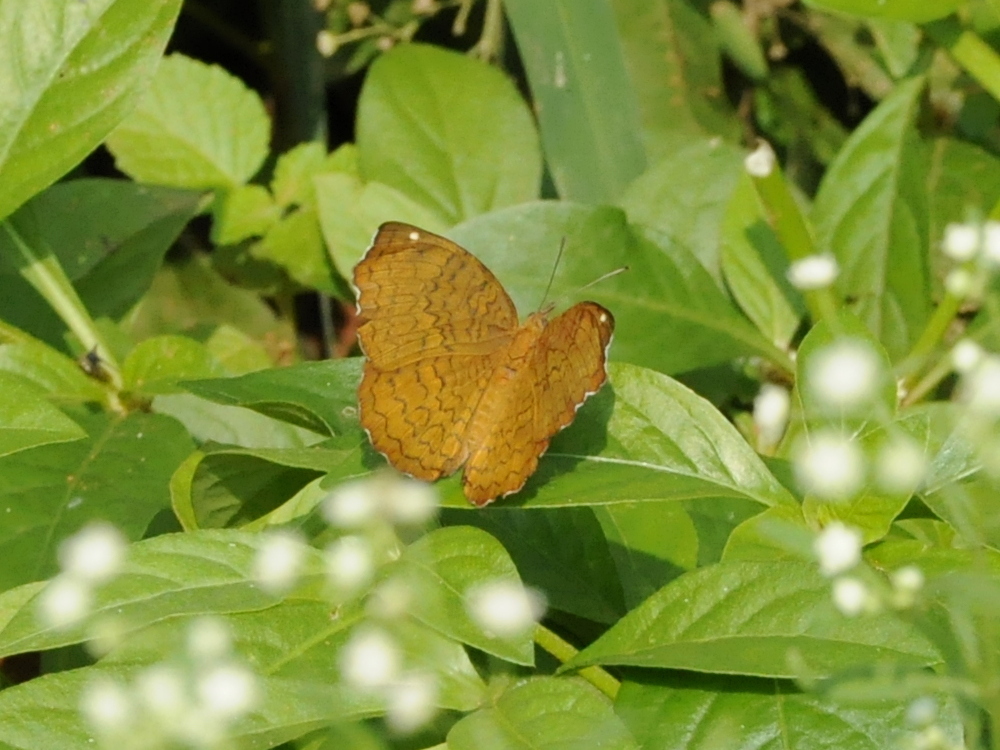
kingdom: Animalia
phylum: Arthropoda
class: Insecta
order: Lepidoptera
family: Nymphalidae
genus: Ariadne
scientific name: Ariadne merione
